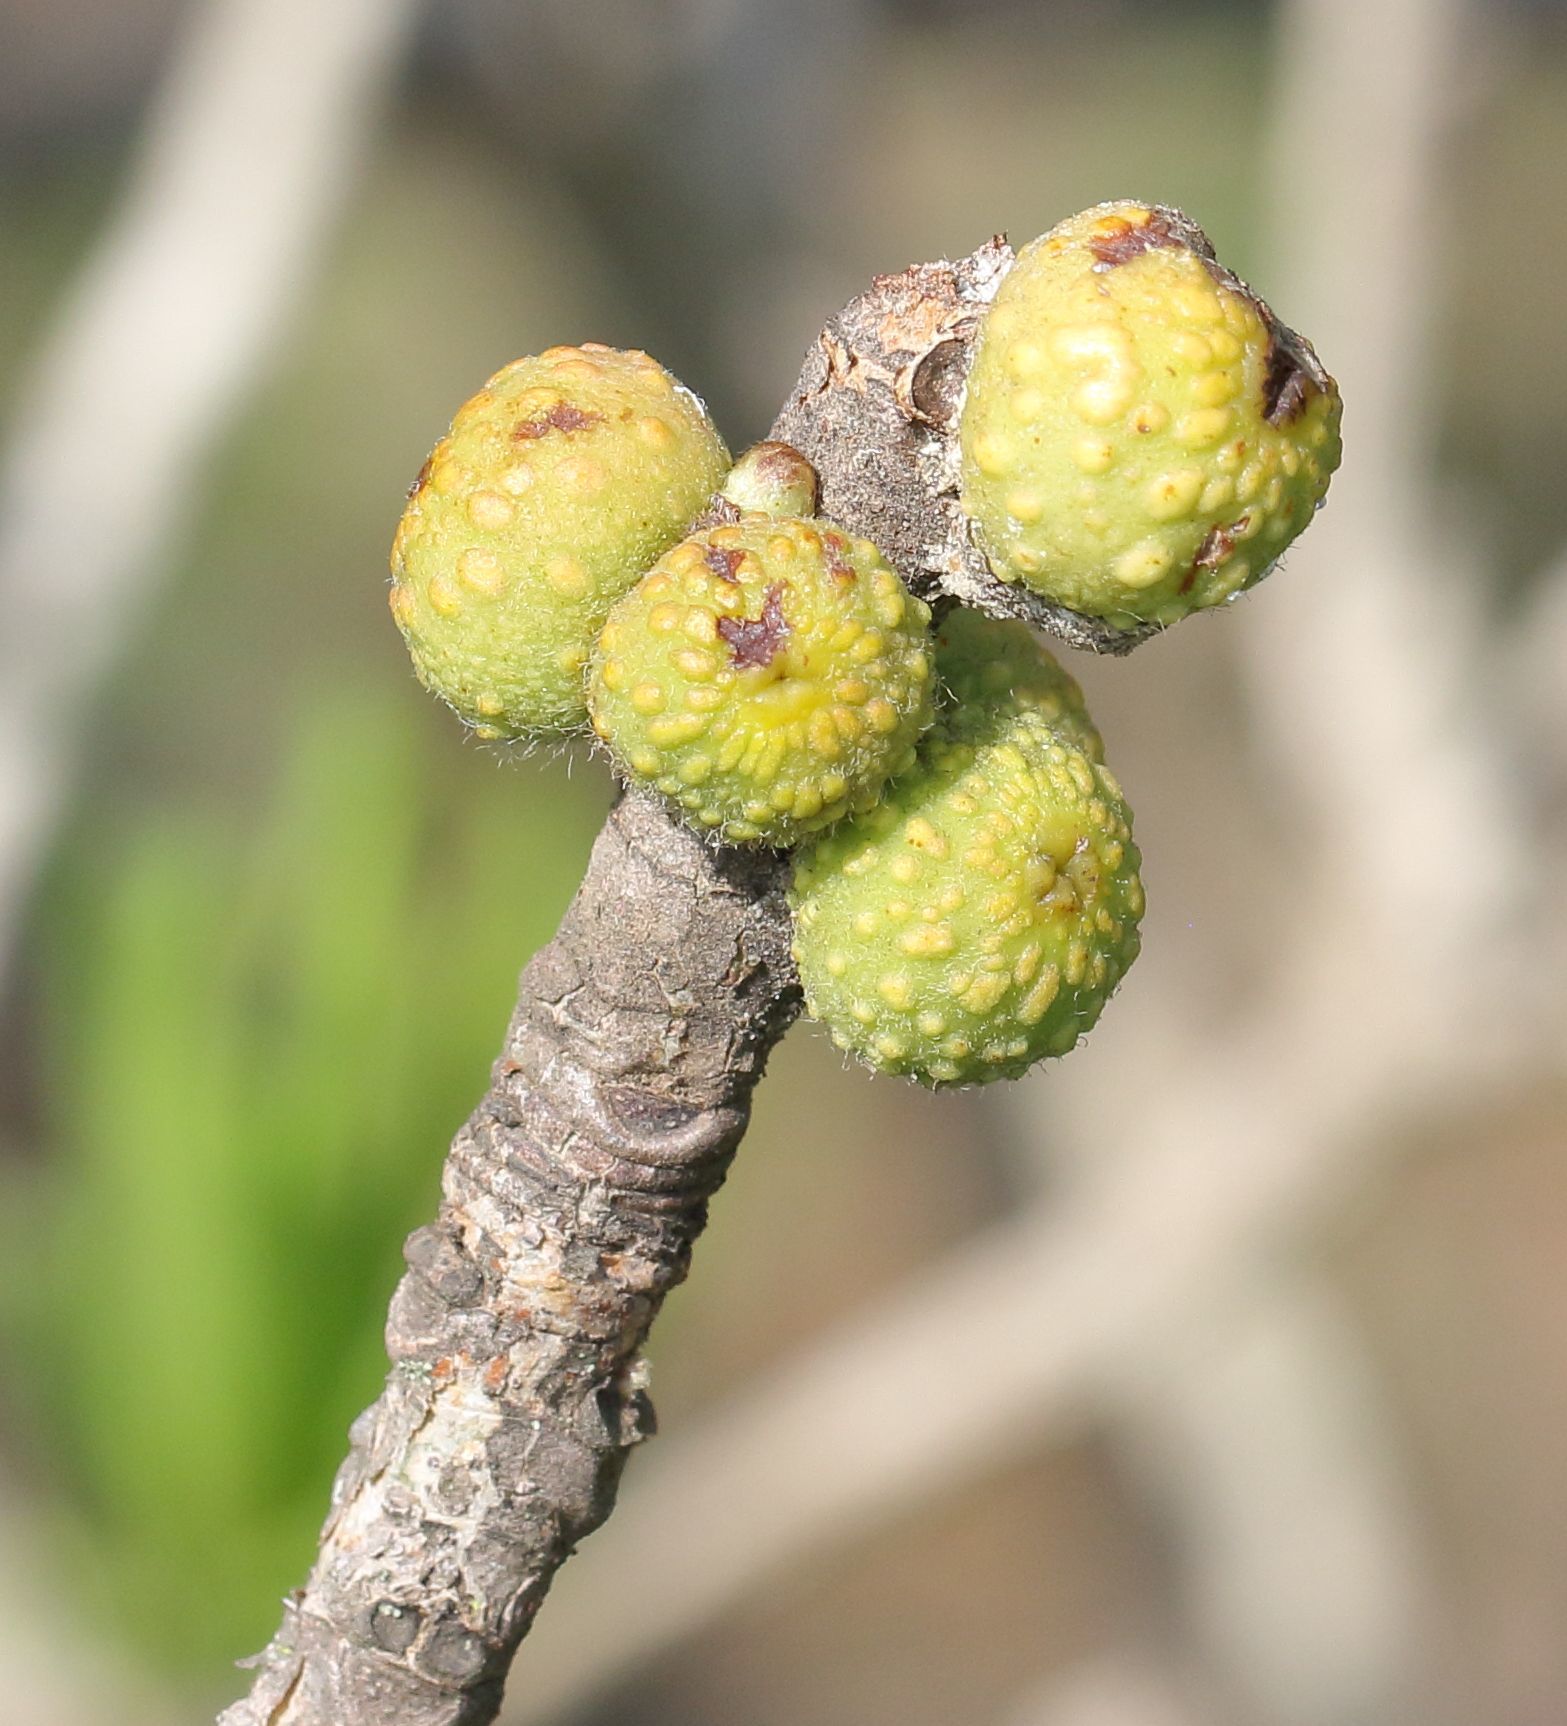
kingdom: Plantae
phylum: Tracheophyta
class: Magnoliopsida
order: Rosales
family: Moraceae
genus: Ficus
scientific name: Ficus glumosa
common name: Hairy rock fig
